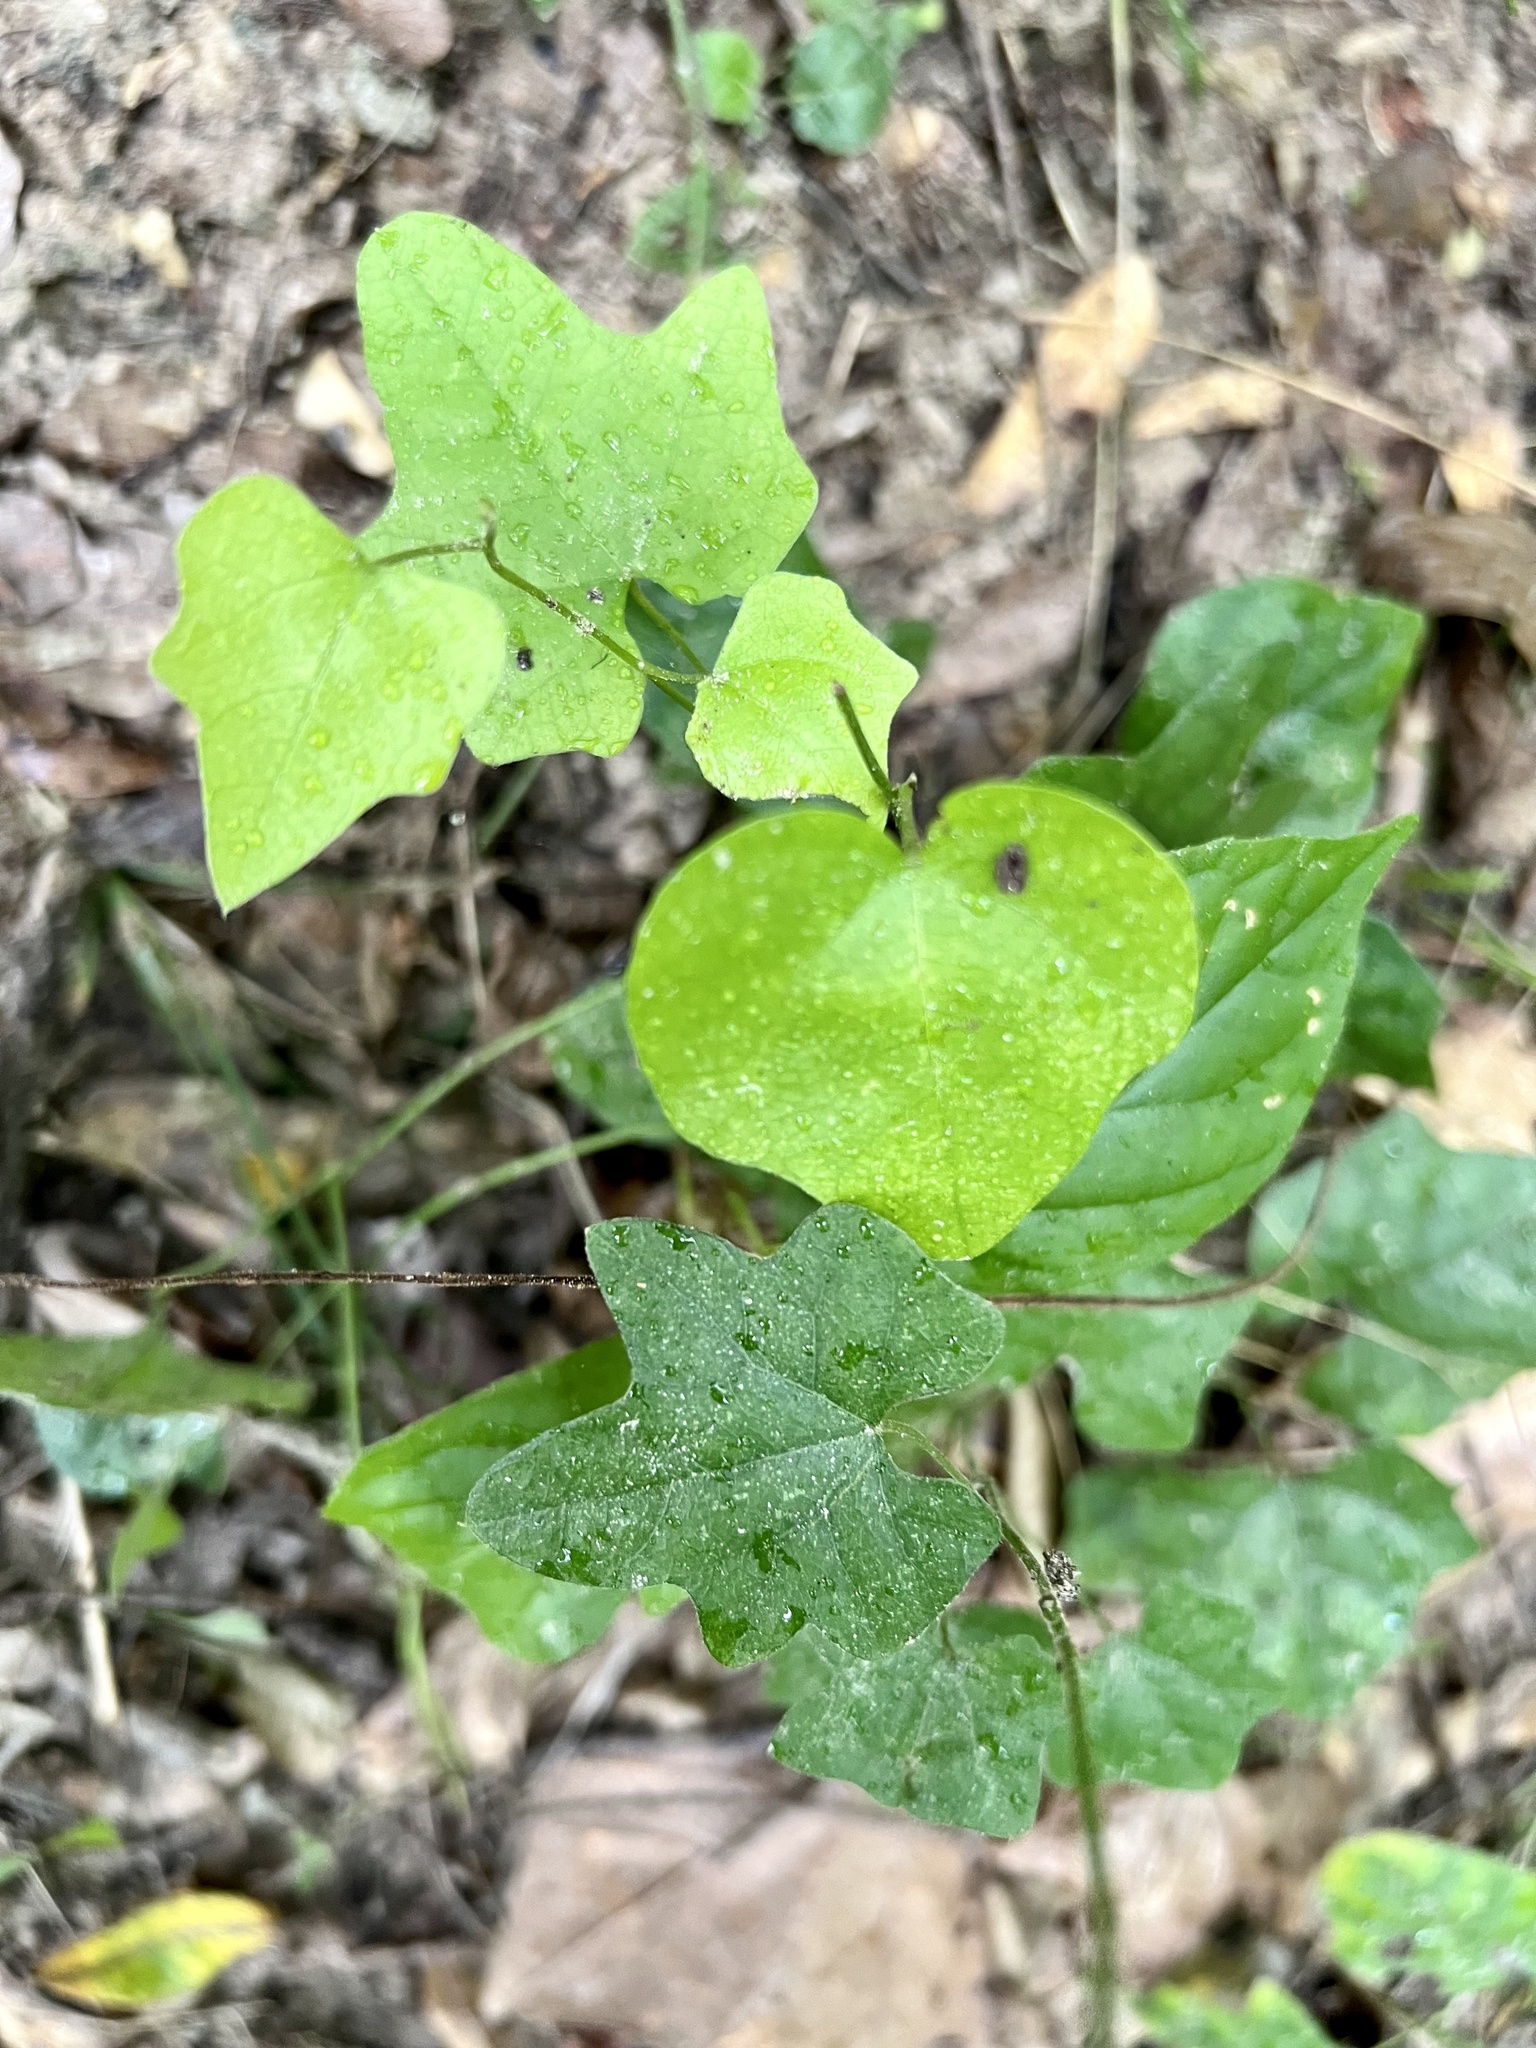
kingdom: Plantae
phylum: Tracheophyta
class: Magnoliopsida
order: Ranunculales
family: Menispermaceae
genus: Cocculus
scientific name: Cocculus carolinus
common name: Carolina moonseed
